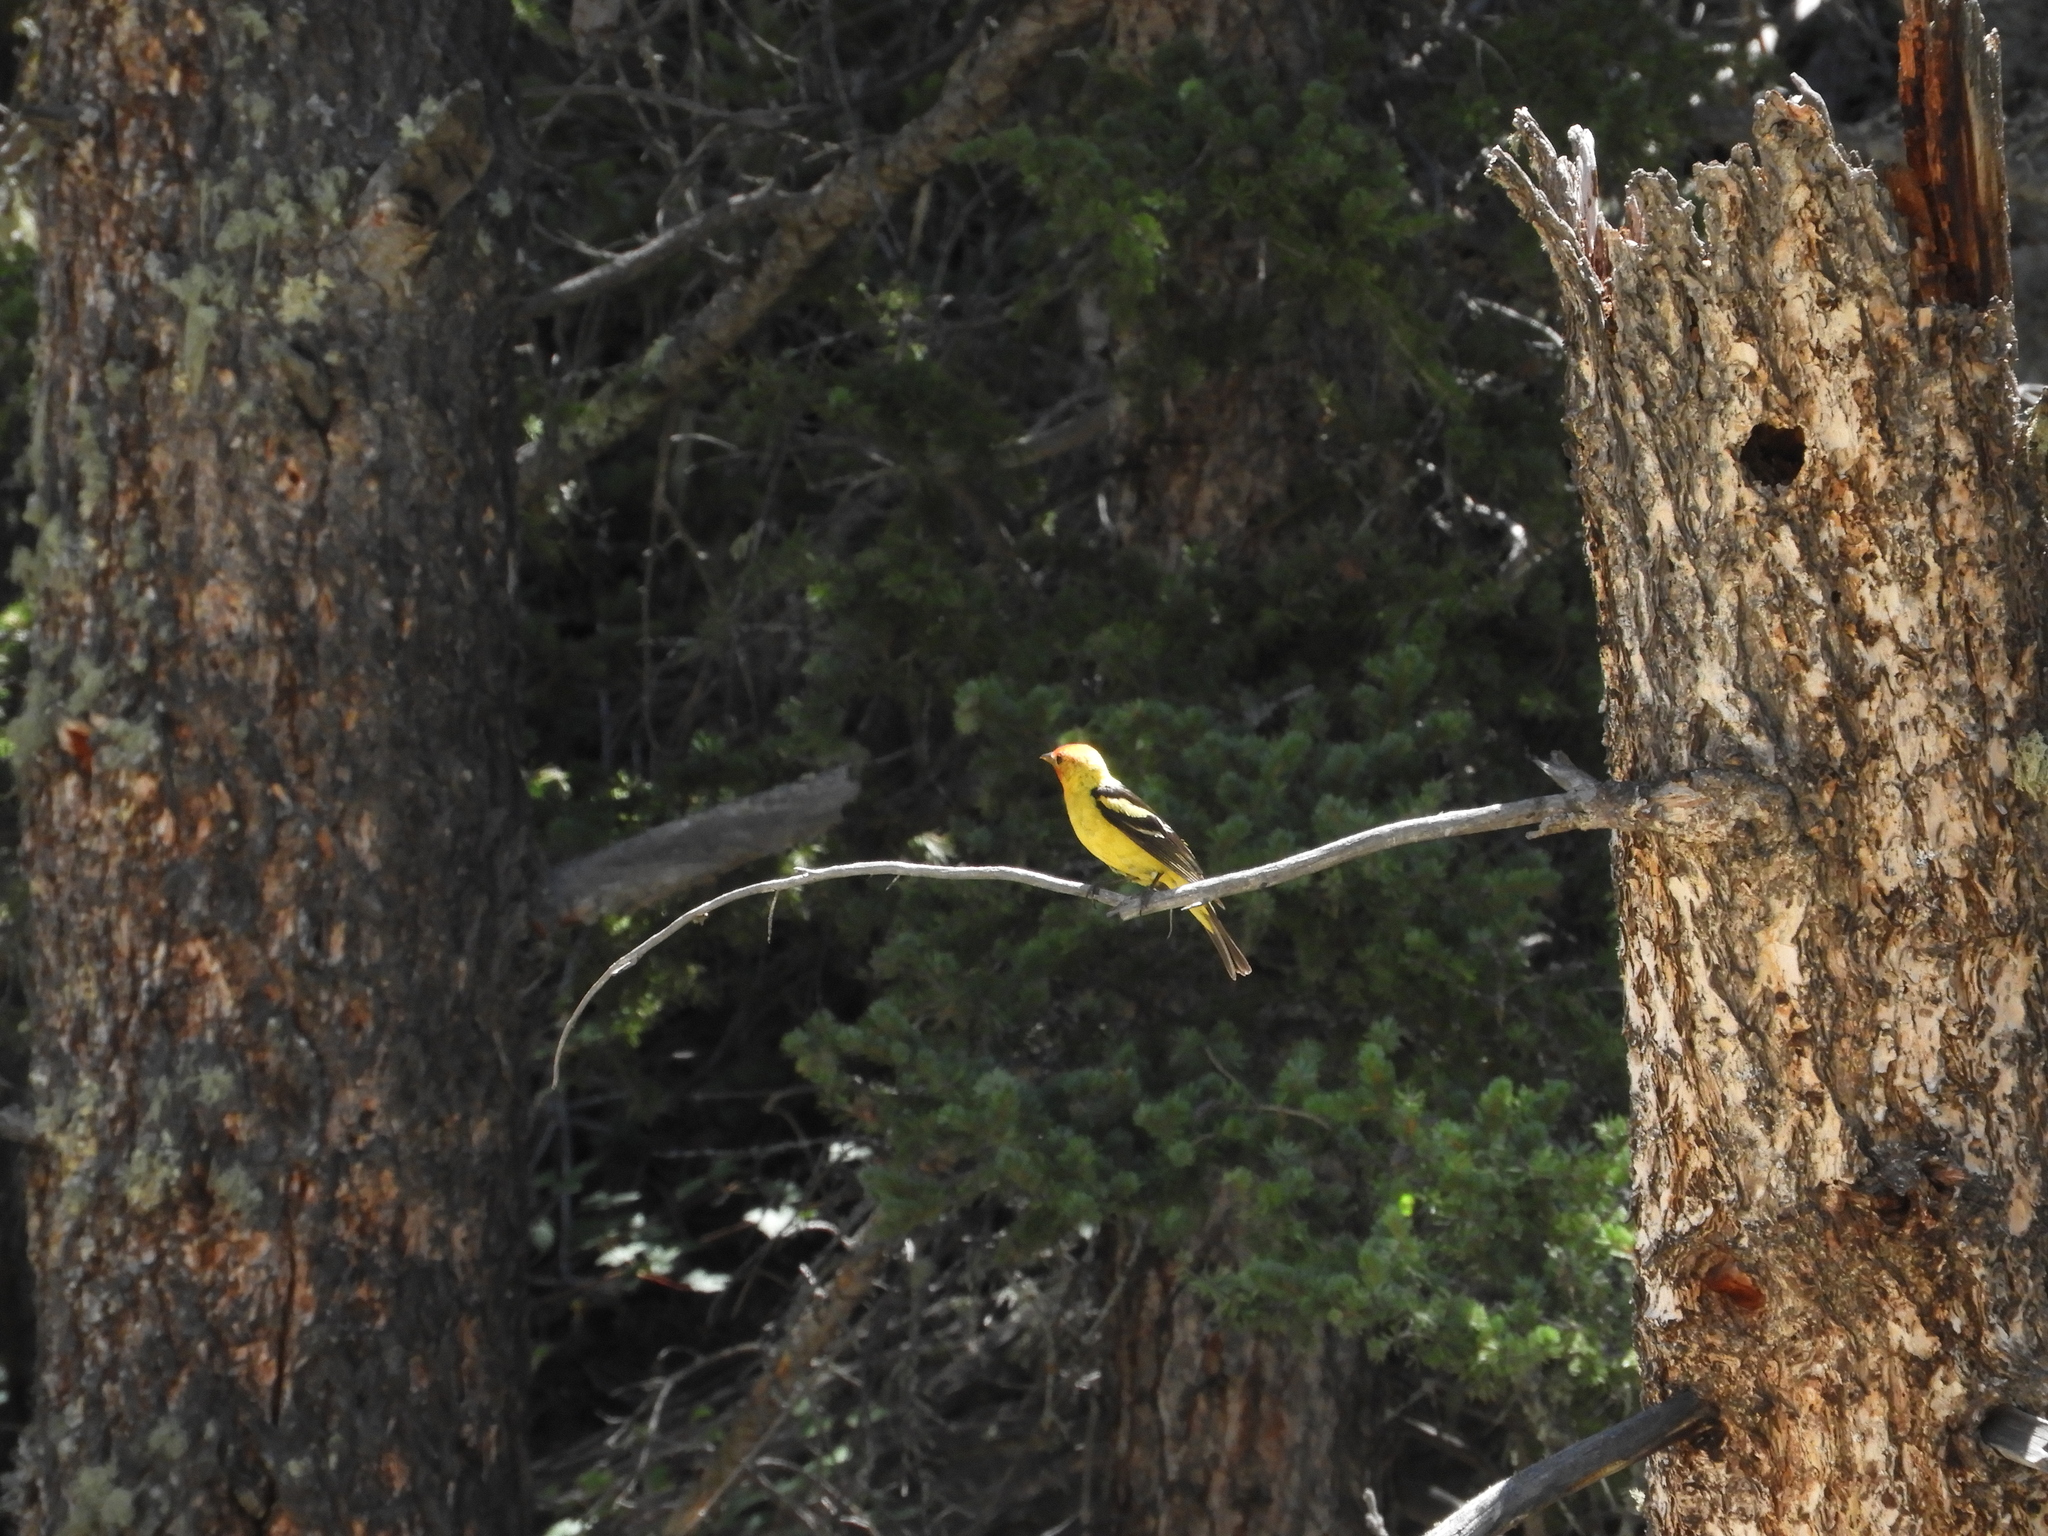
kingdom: Animalia
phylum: Chordata
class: Aves
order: Passeriformes
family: Cardinalidae
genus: Piranga
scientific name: Piranga ludoviciana
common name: Western tanager
